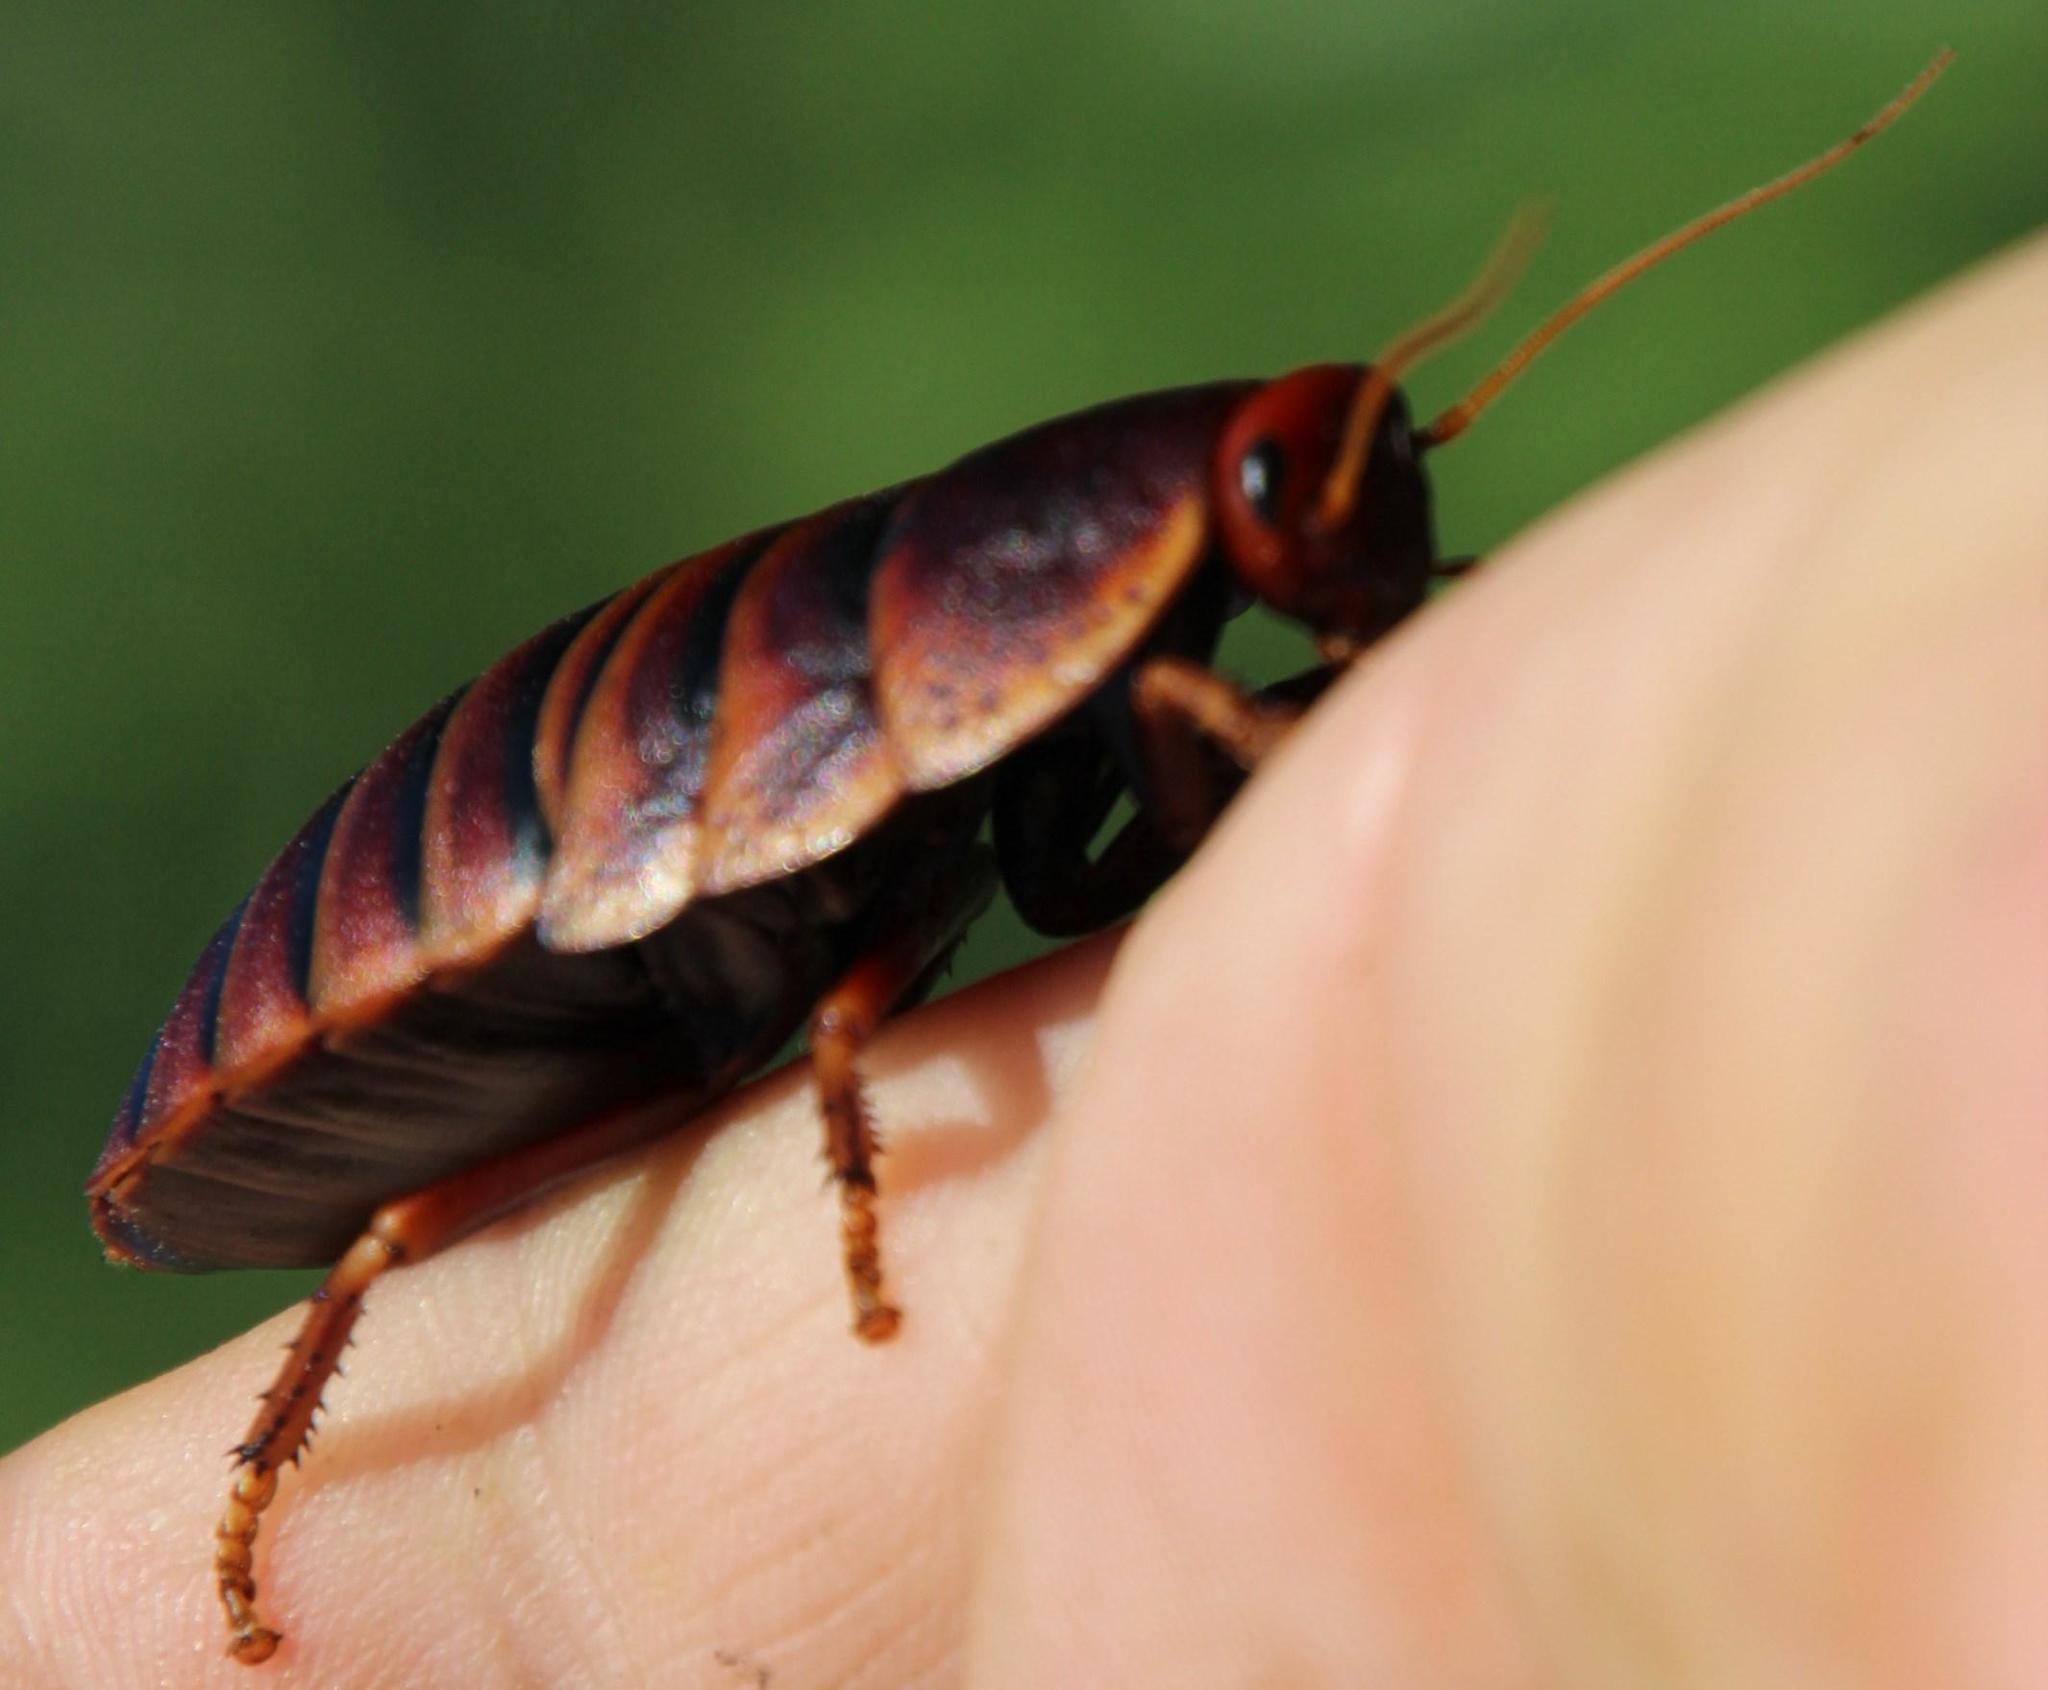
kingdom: Animalia
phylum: Arthropoda
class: Insecta
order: Blattodea
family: Blaberidae
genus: Aptera
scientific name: Aptera fusca
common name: Cape mountain cockroach
